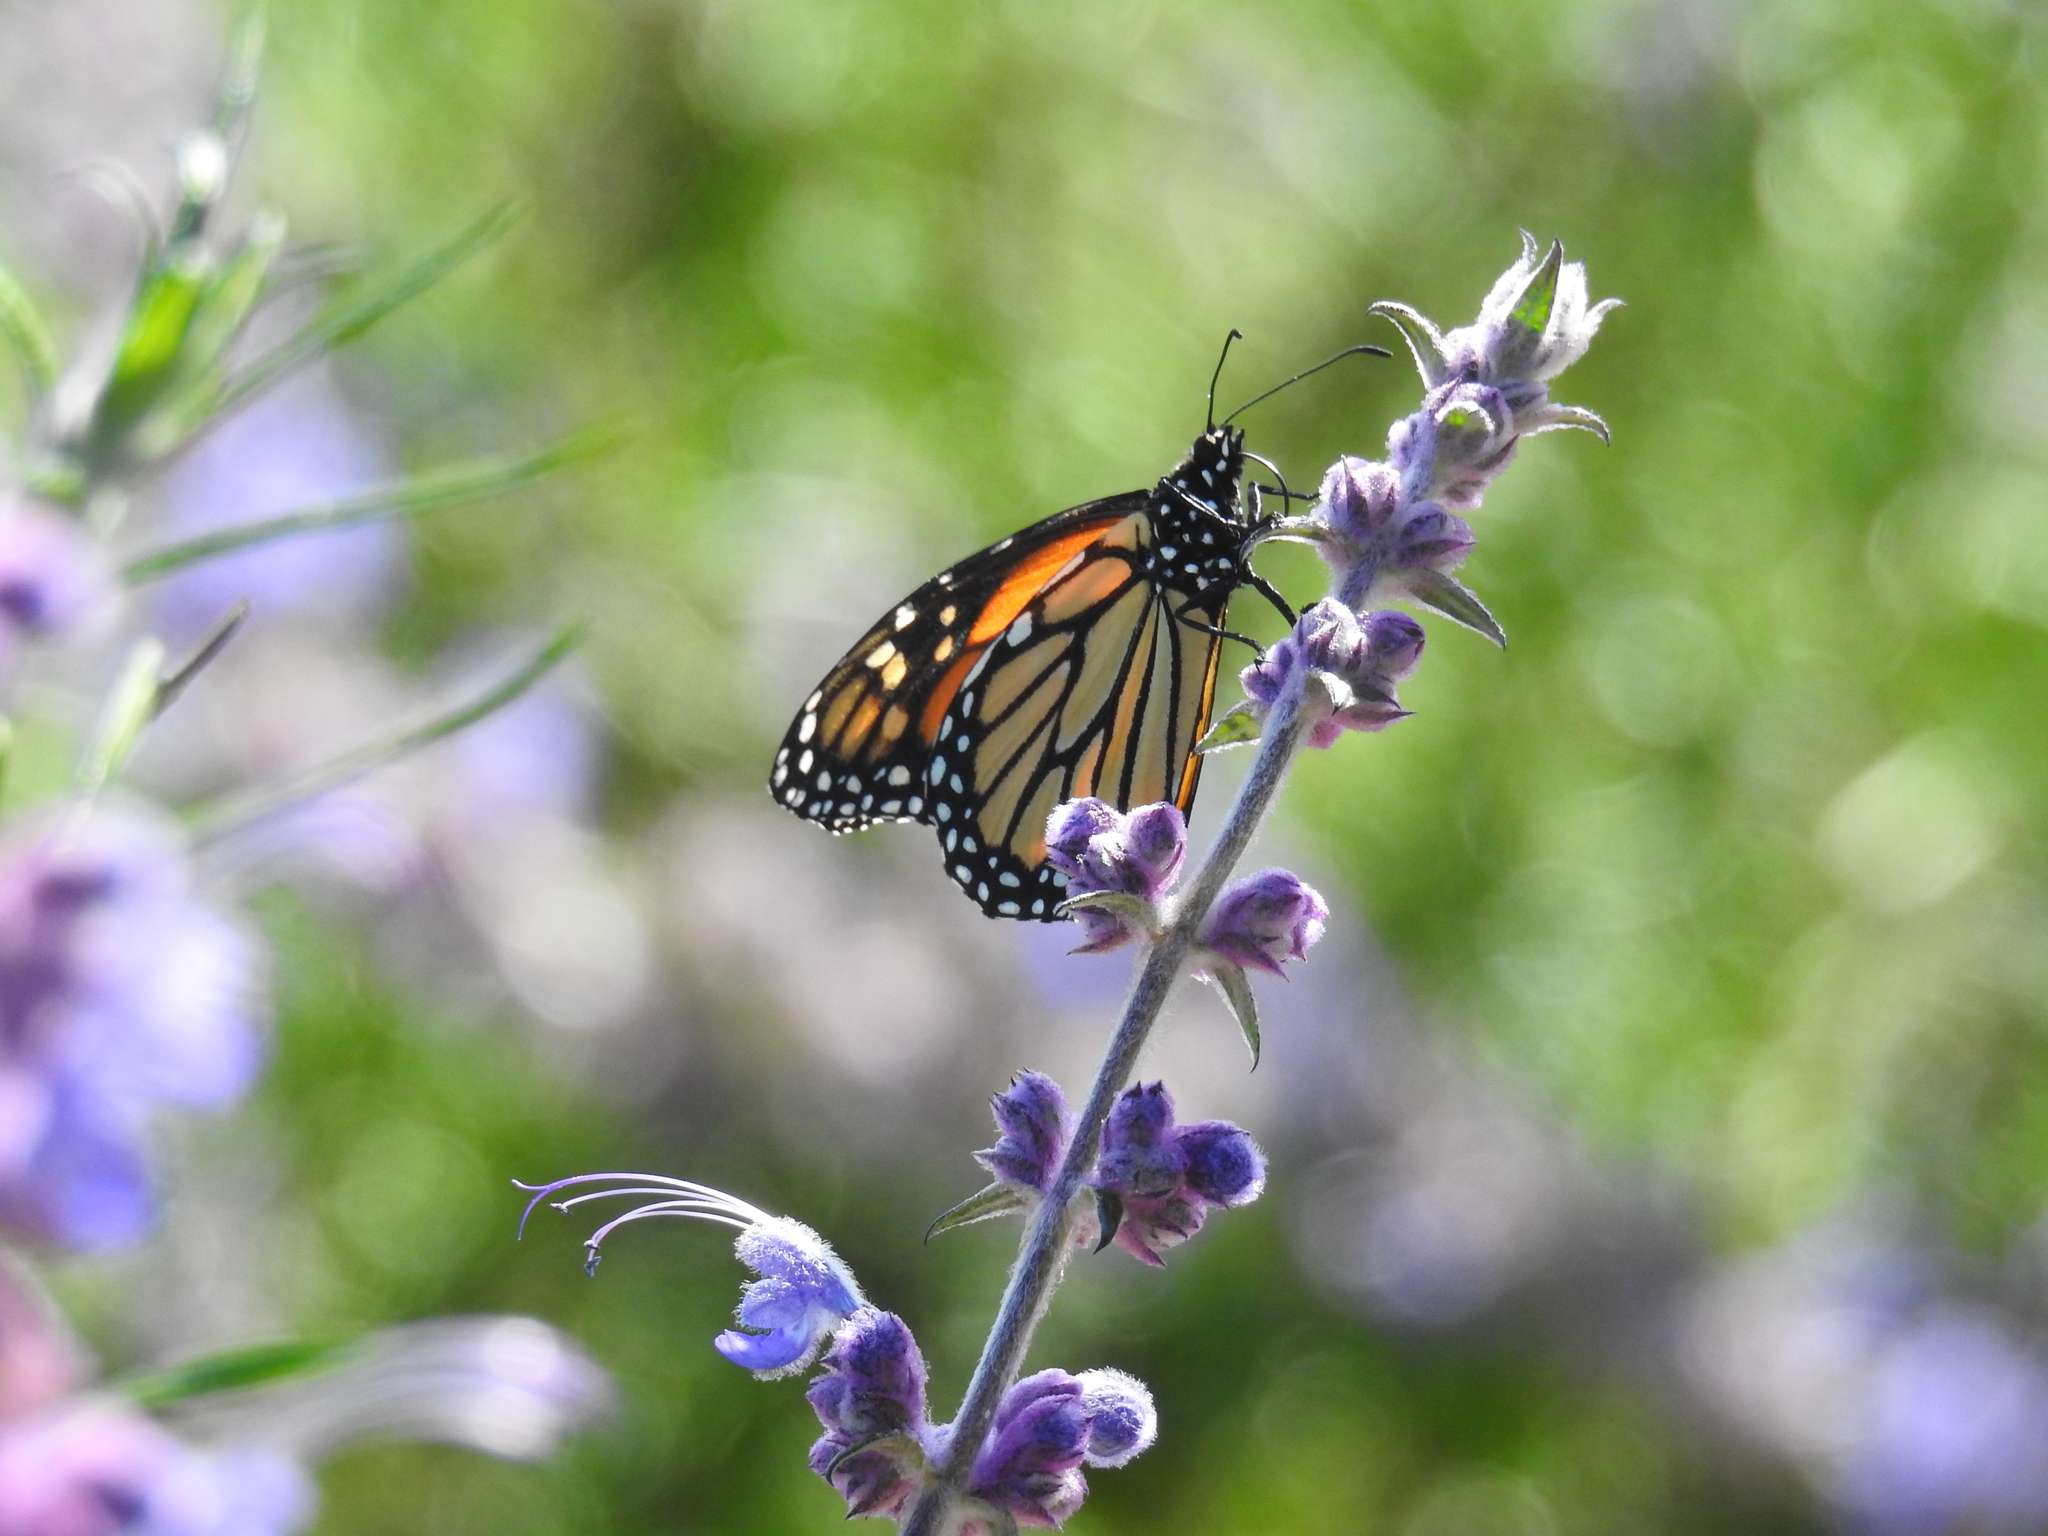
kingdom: Animalia
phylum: Arthropoda
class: Insecta
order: Lepidoptera
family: Nymphalidae
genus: Danaus
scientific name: Danaus plexippus
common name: Monarch
